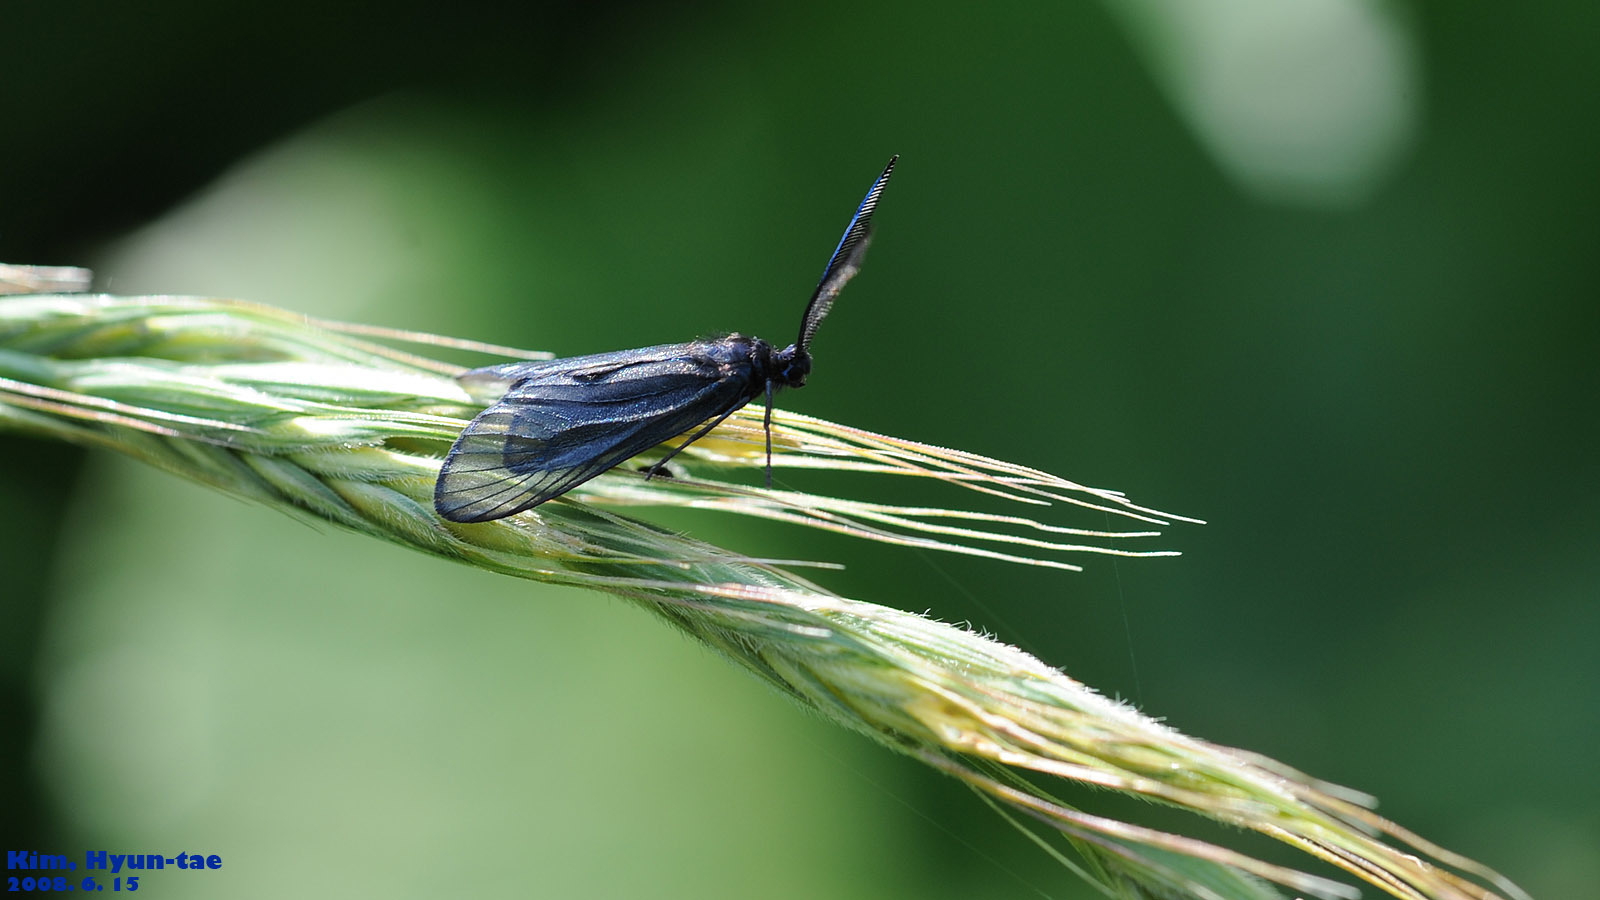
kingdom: Animalia
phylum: Arthropoda
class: Insecta
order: Lepidoptera
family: Zygaenidae
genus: Artona
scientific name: Artona martini
